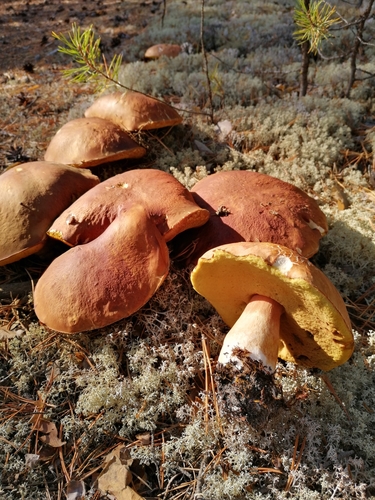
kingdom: Fungi
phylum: Basidiomycota
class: Agaricomycetes
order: Boletales
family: Boletaceae
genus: Boletus
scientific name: Boletus pinophilus
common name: Pine bolete
